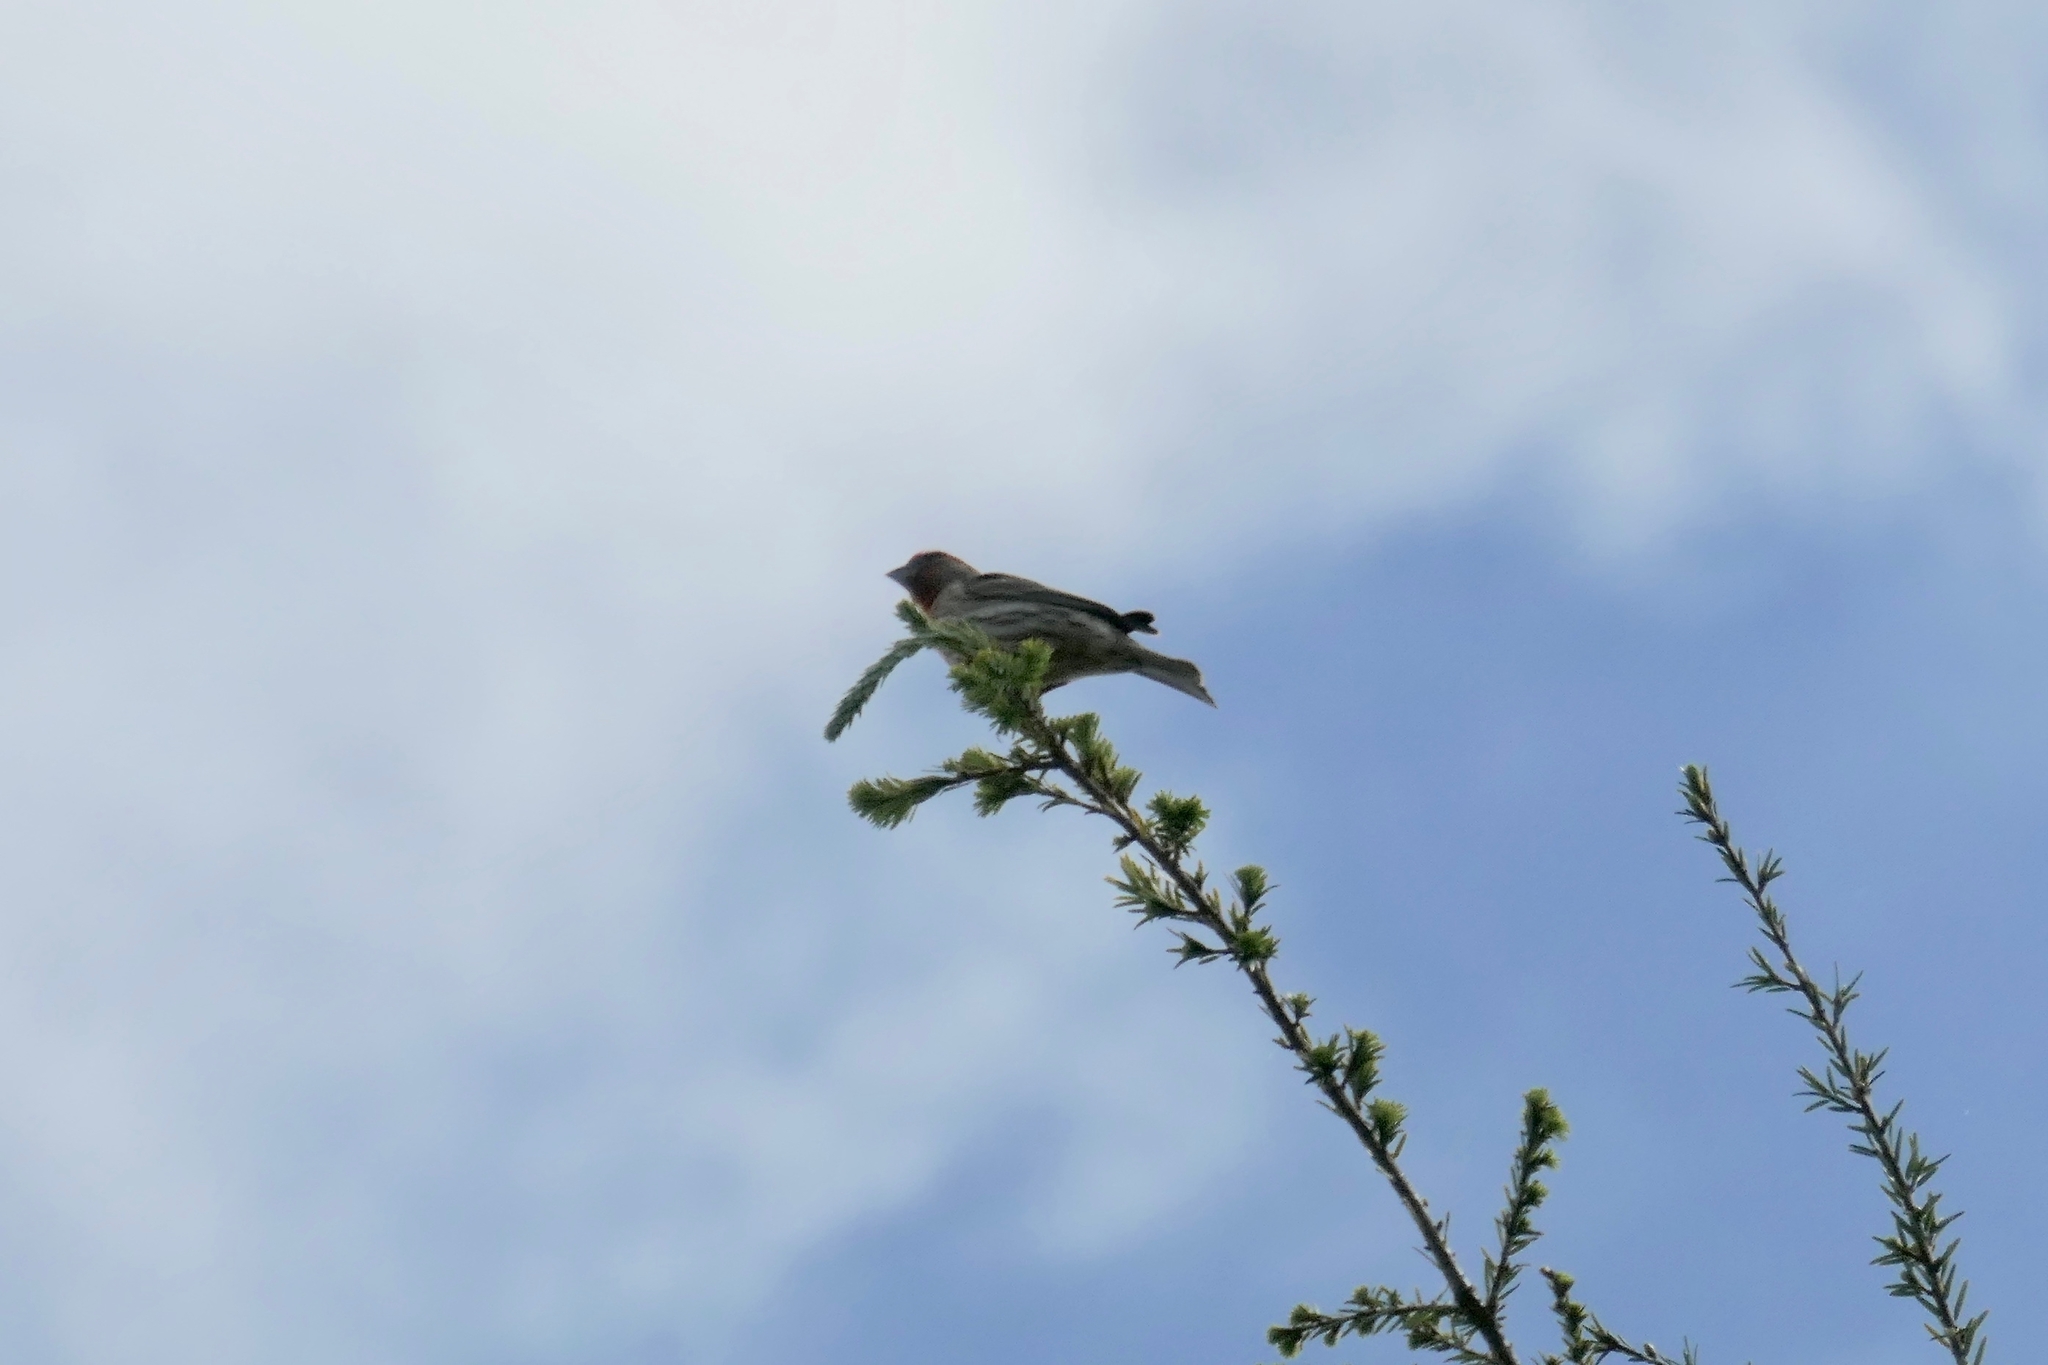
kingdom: Animalia
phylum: Chordata
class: Aves
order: Passeriformes
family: Fringillidae
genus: Haemorhous
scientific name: Haemorhous mexicanus
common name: House finch
